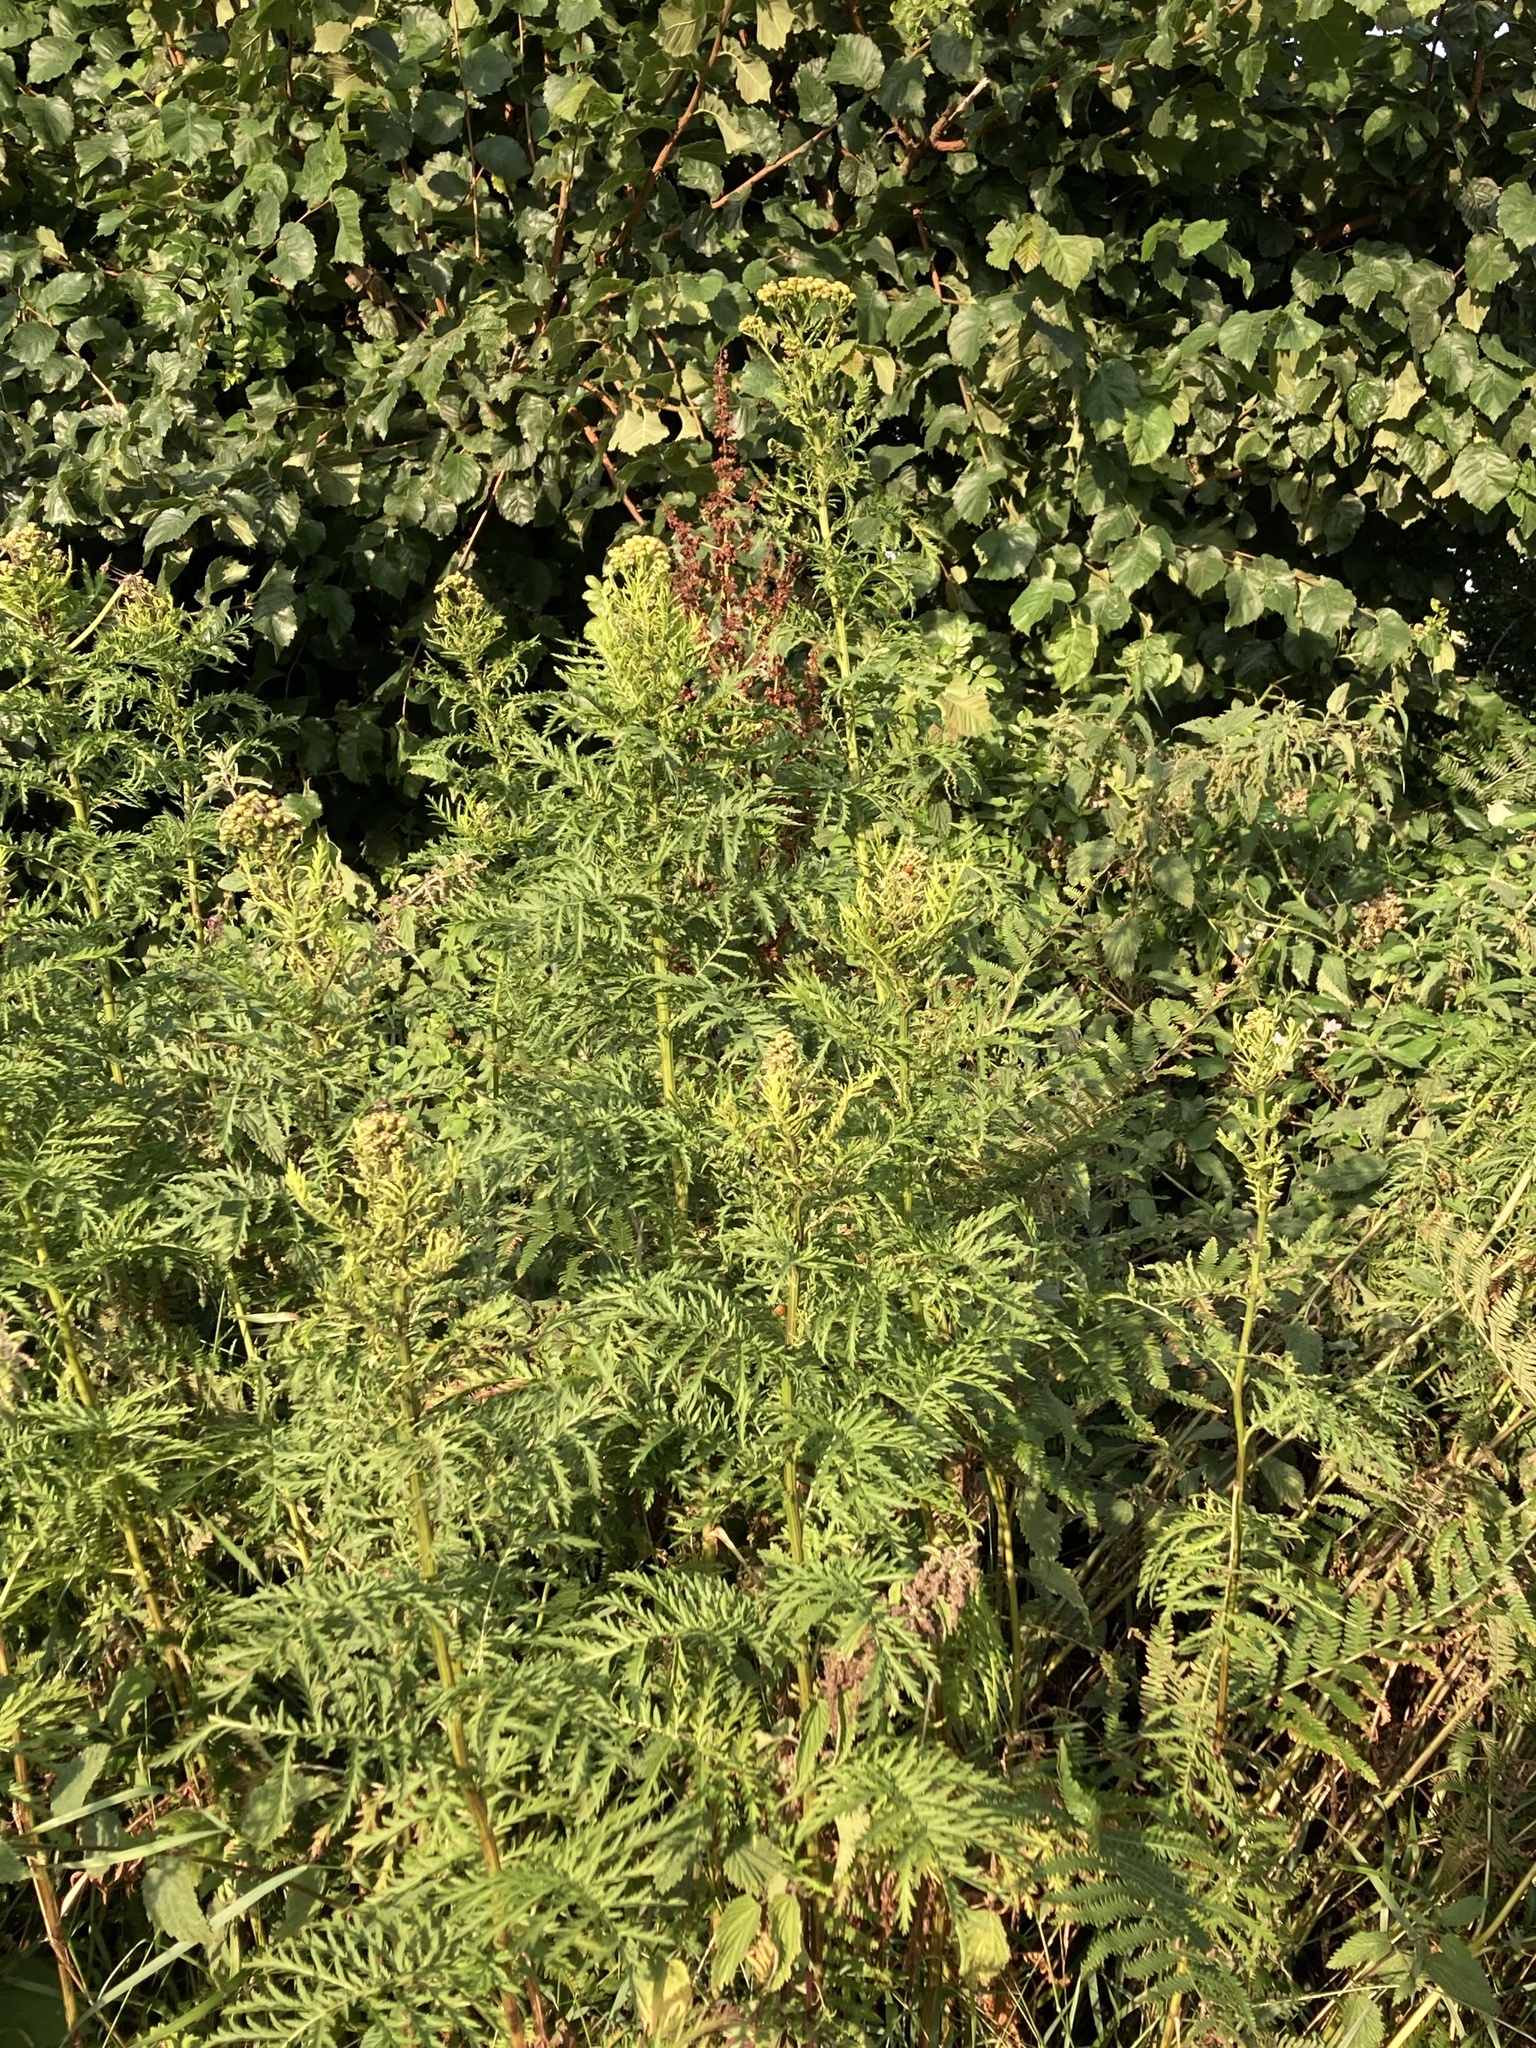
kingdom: Plantae
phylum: Tracheophyta
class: Magnoliopsida
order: Asterales
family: Asteraceae
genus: Tanacetum
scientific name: Tanacetum vulgare
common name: Common tansy
